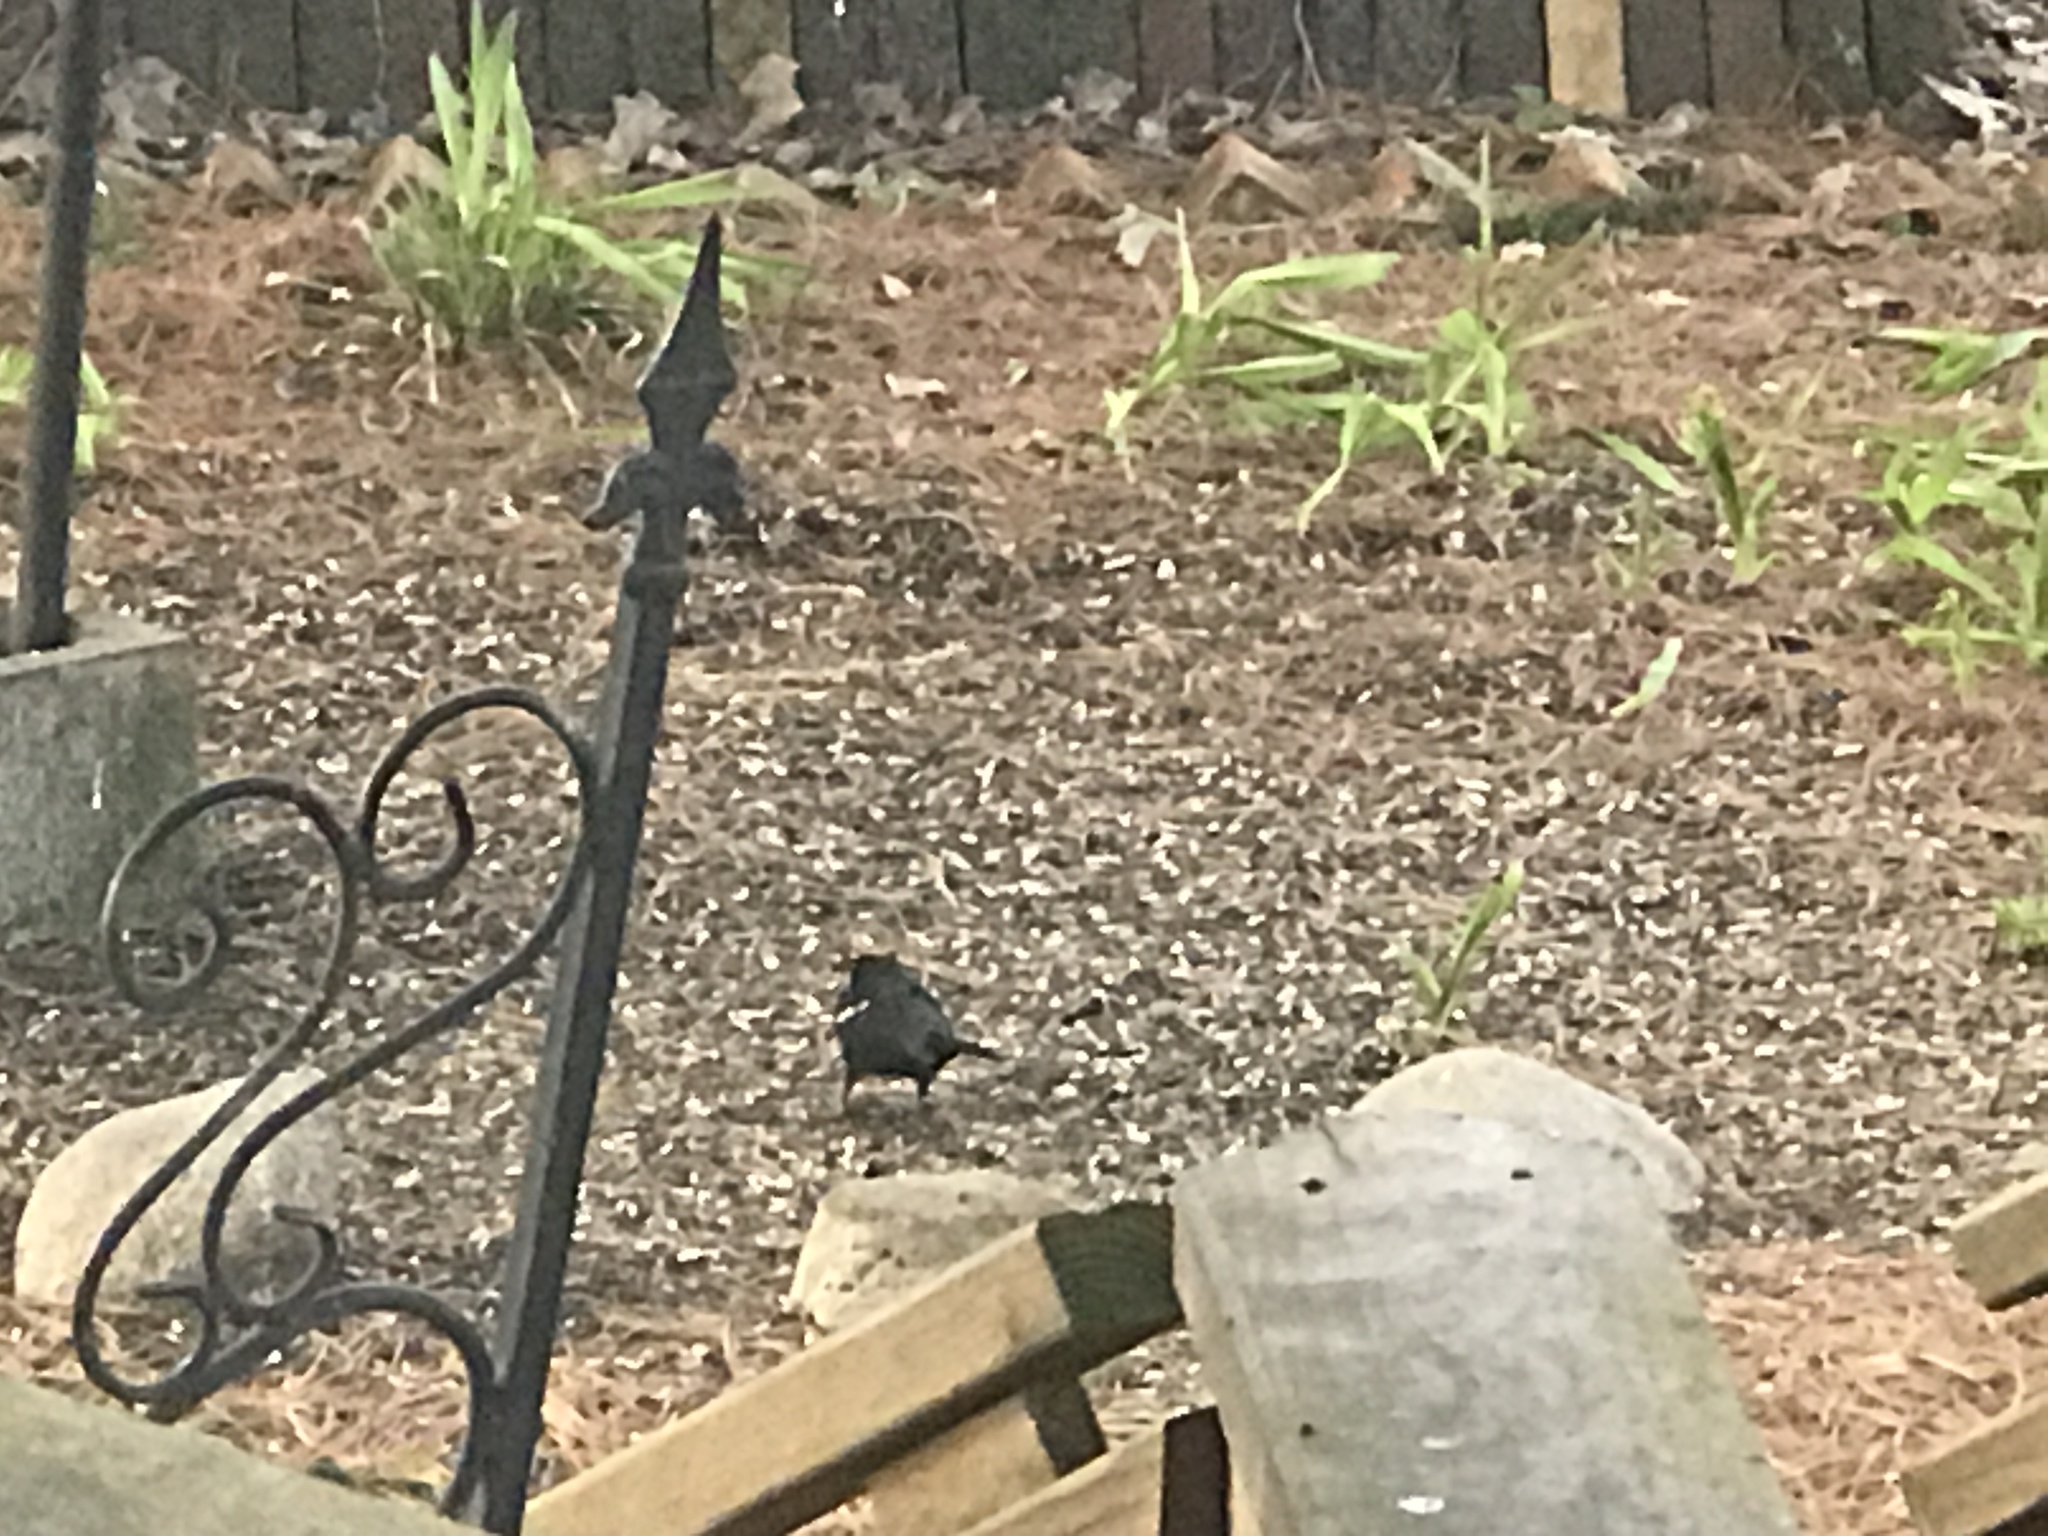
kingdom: Animalia
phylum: Chordata
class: Aves
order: Passeriformes
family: Icteridae
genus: Agelaius
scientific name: Agelaius phoeniceus
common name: Red-winged blackbird
